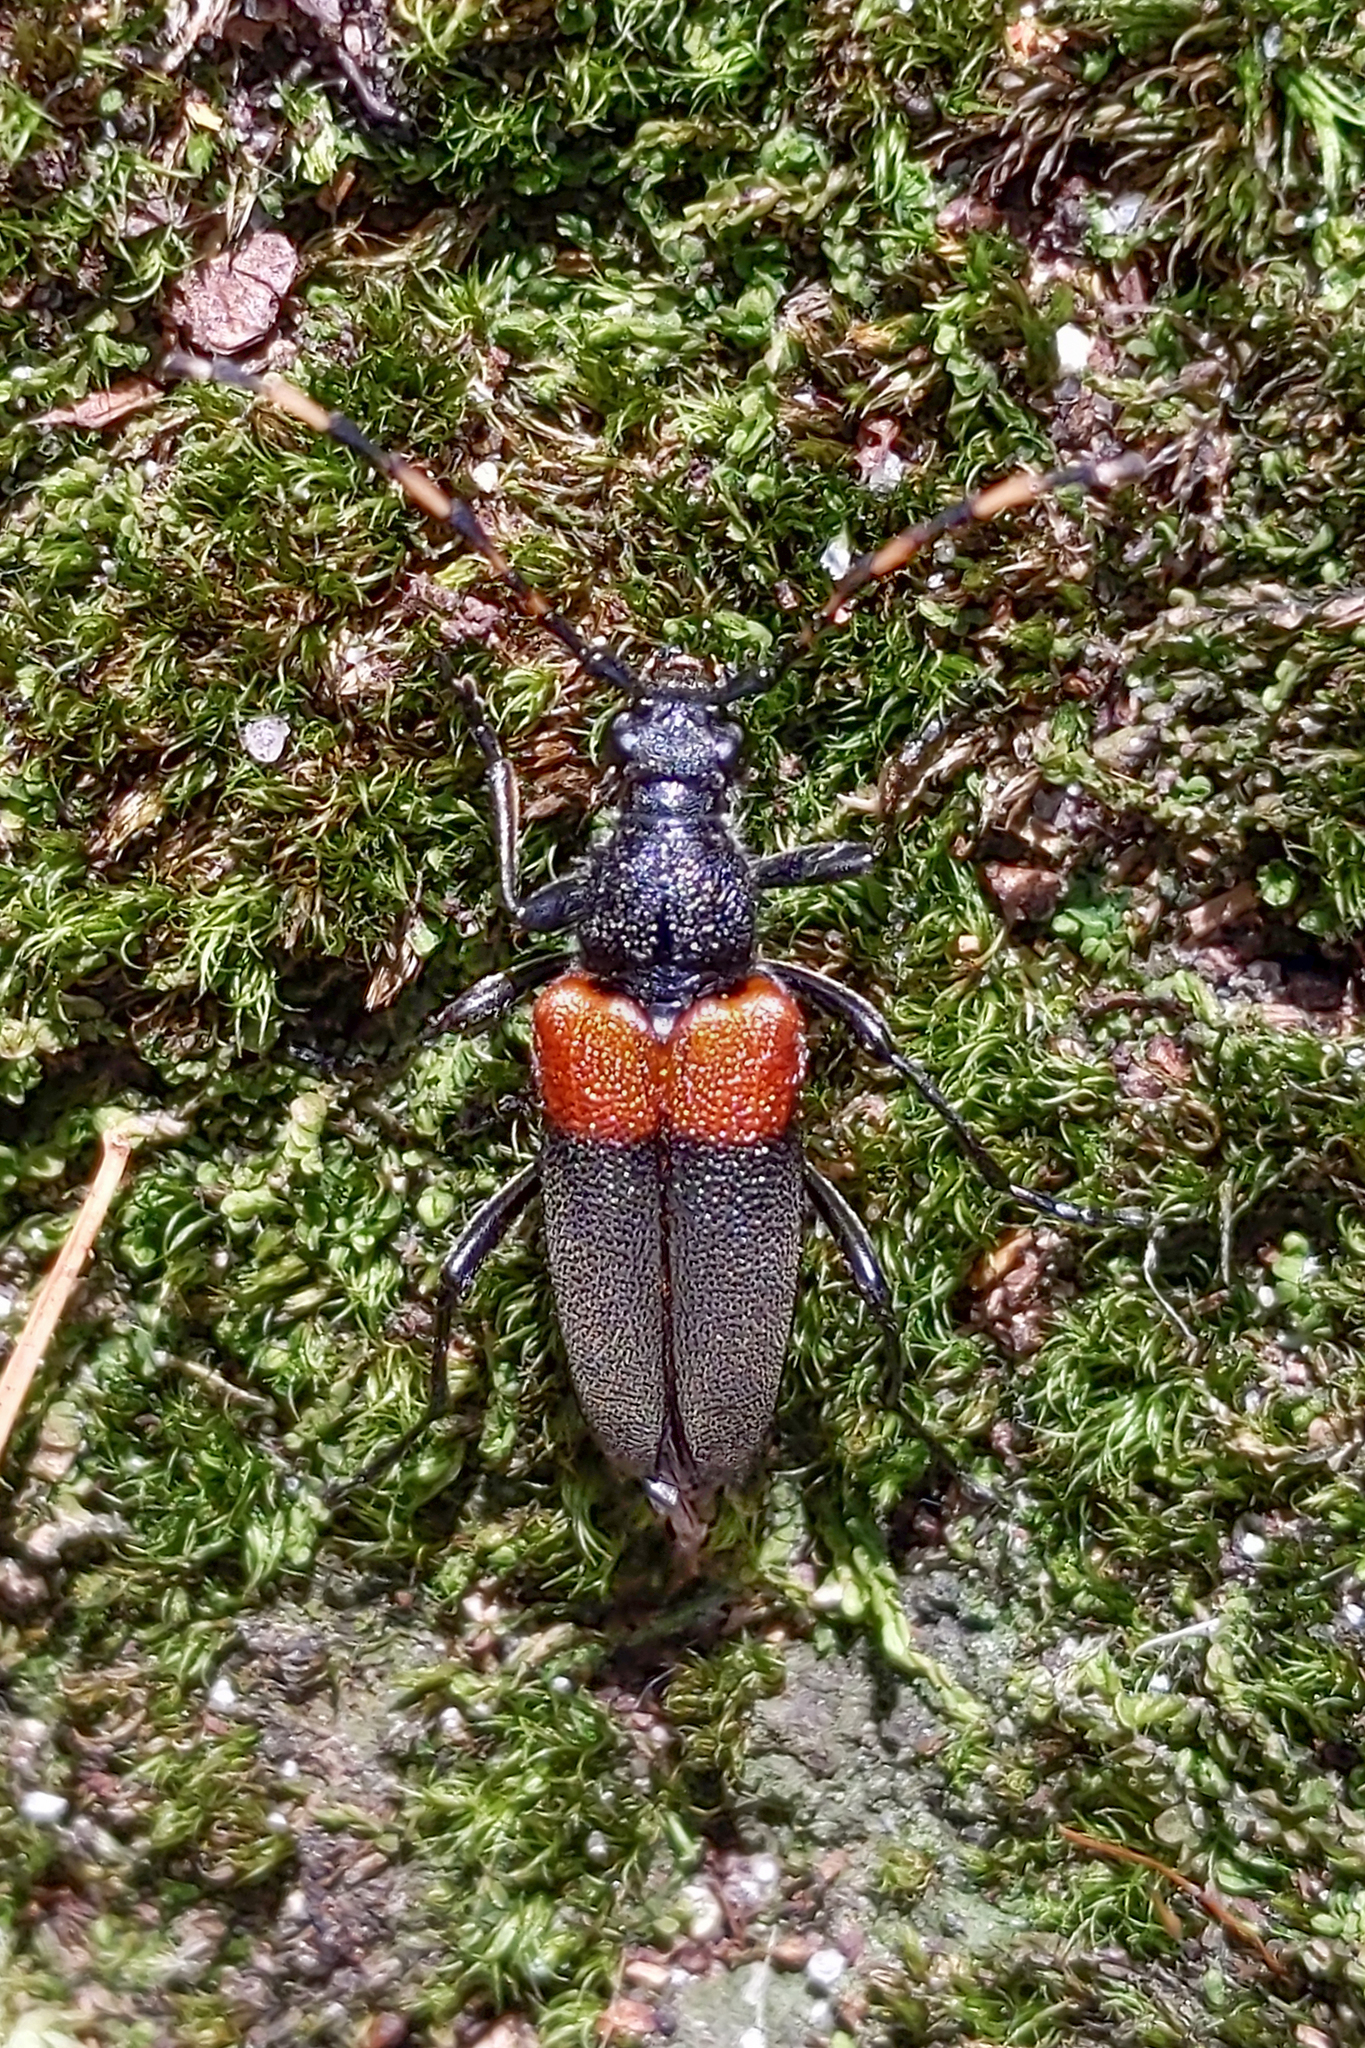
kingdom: Animalia
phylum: Arthropoda
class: Insecta
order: Coleoptera
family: Cerambycidae
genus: Stictoleptura
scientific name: Stictoleptura canadensis
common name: Red-shouldered pine borer
